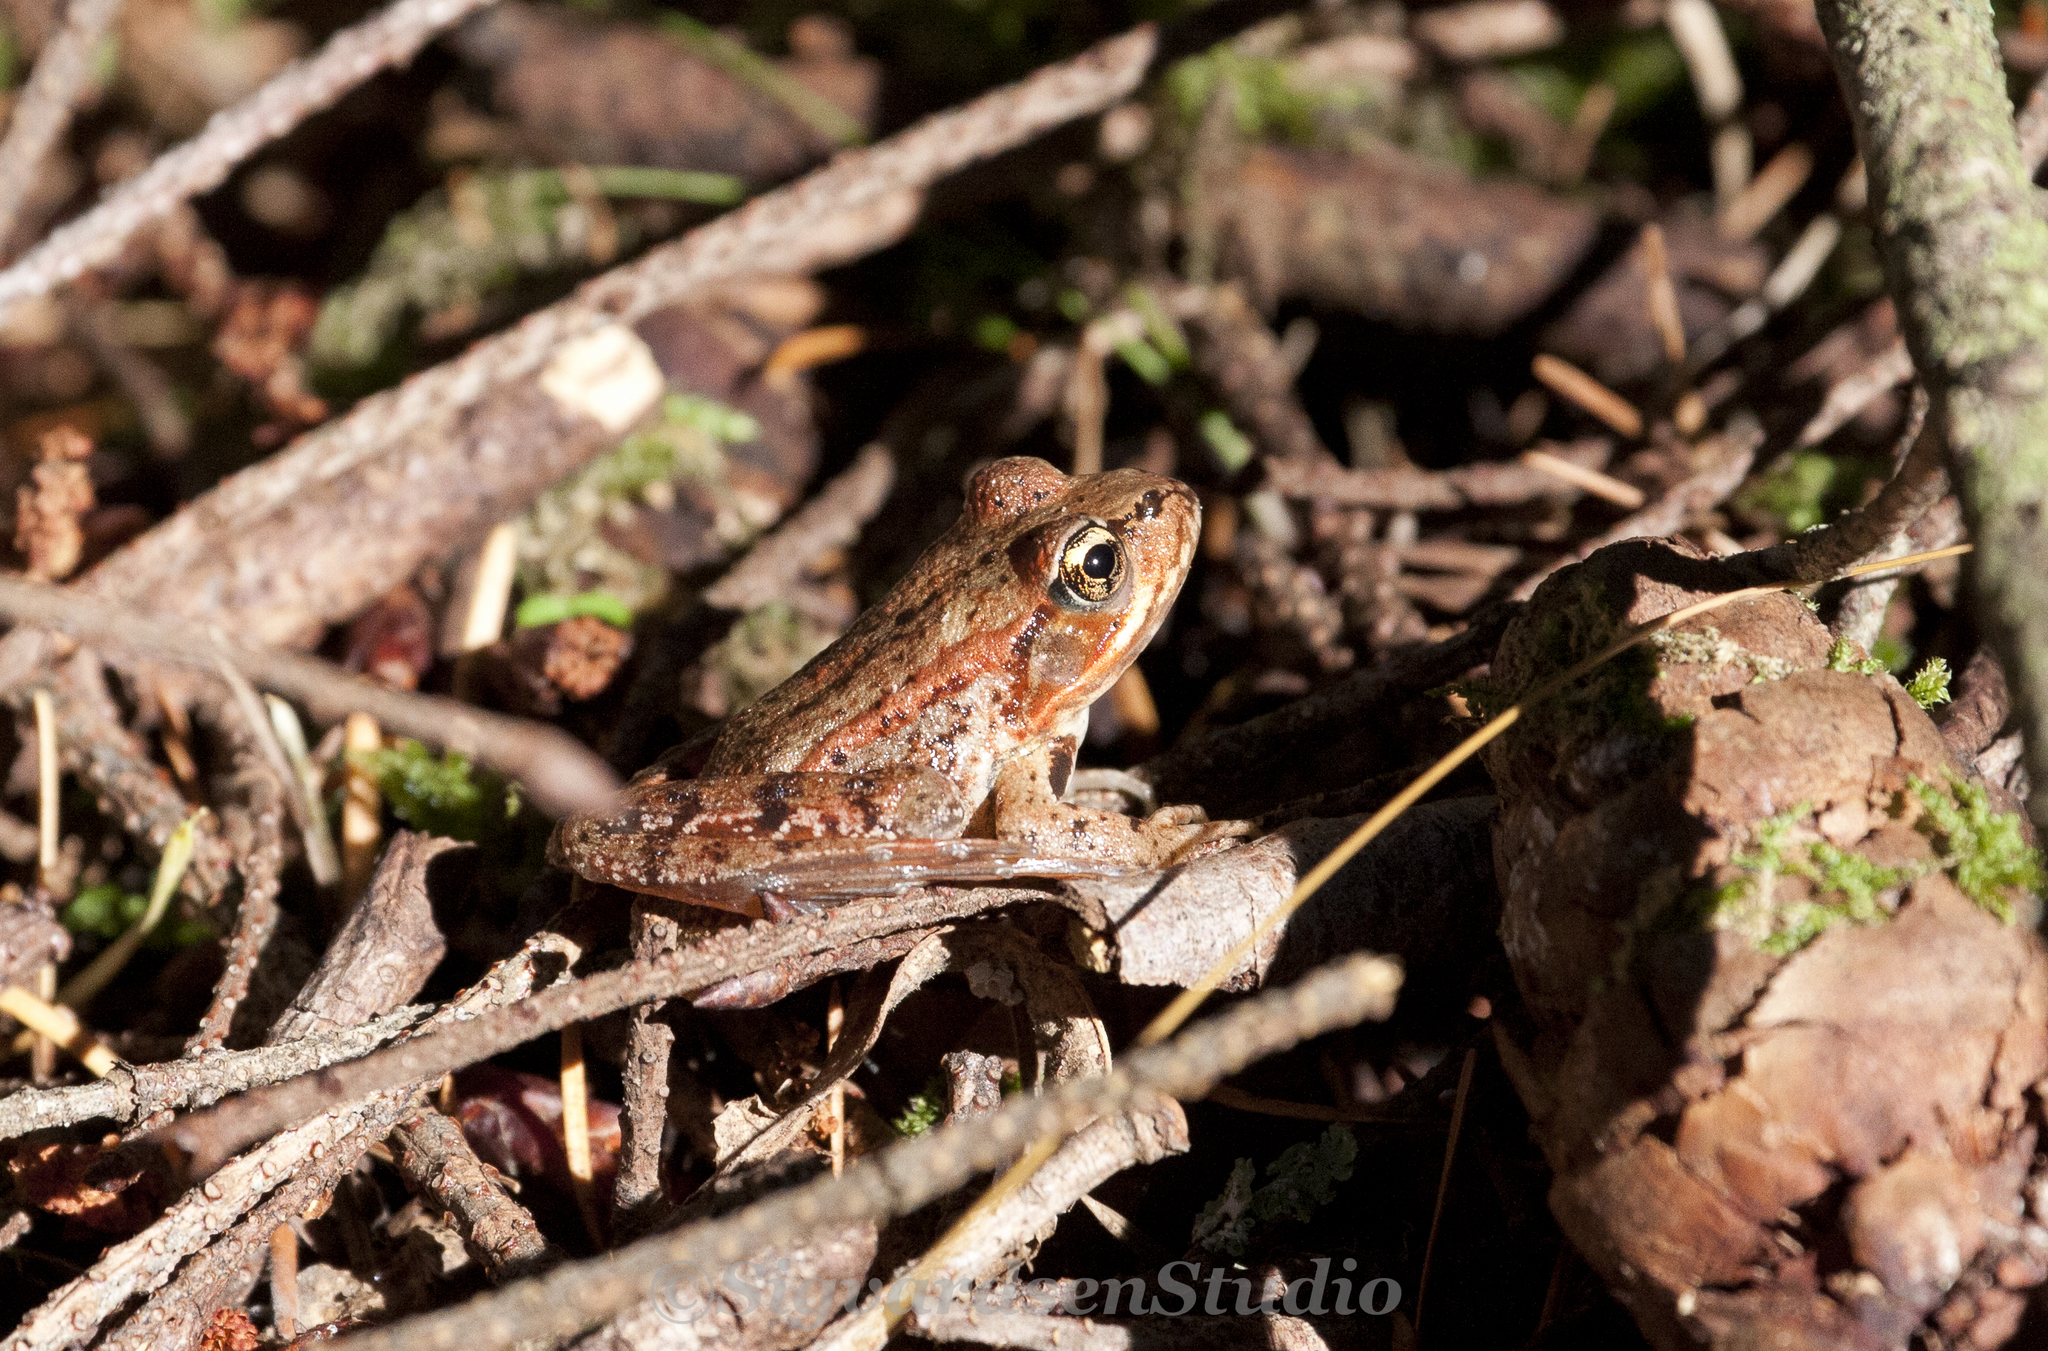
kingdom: Animalia
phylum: Chordata
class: Amphibia
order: Anura
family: Ranidae
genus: Rana
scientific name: Rana aurora
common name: Red-legged frog
